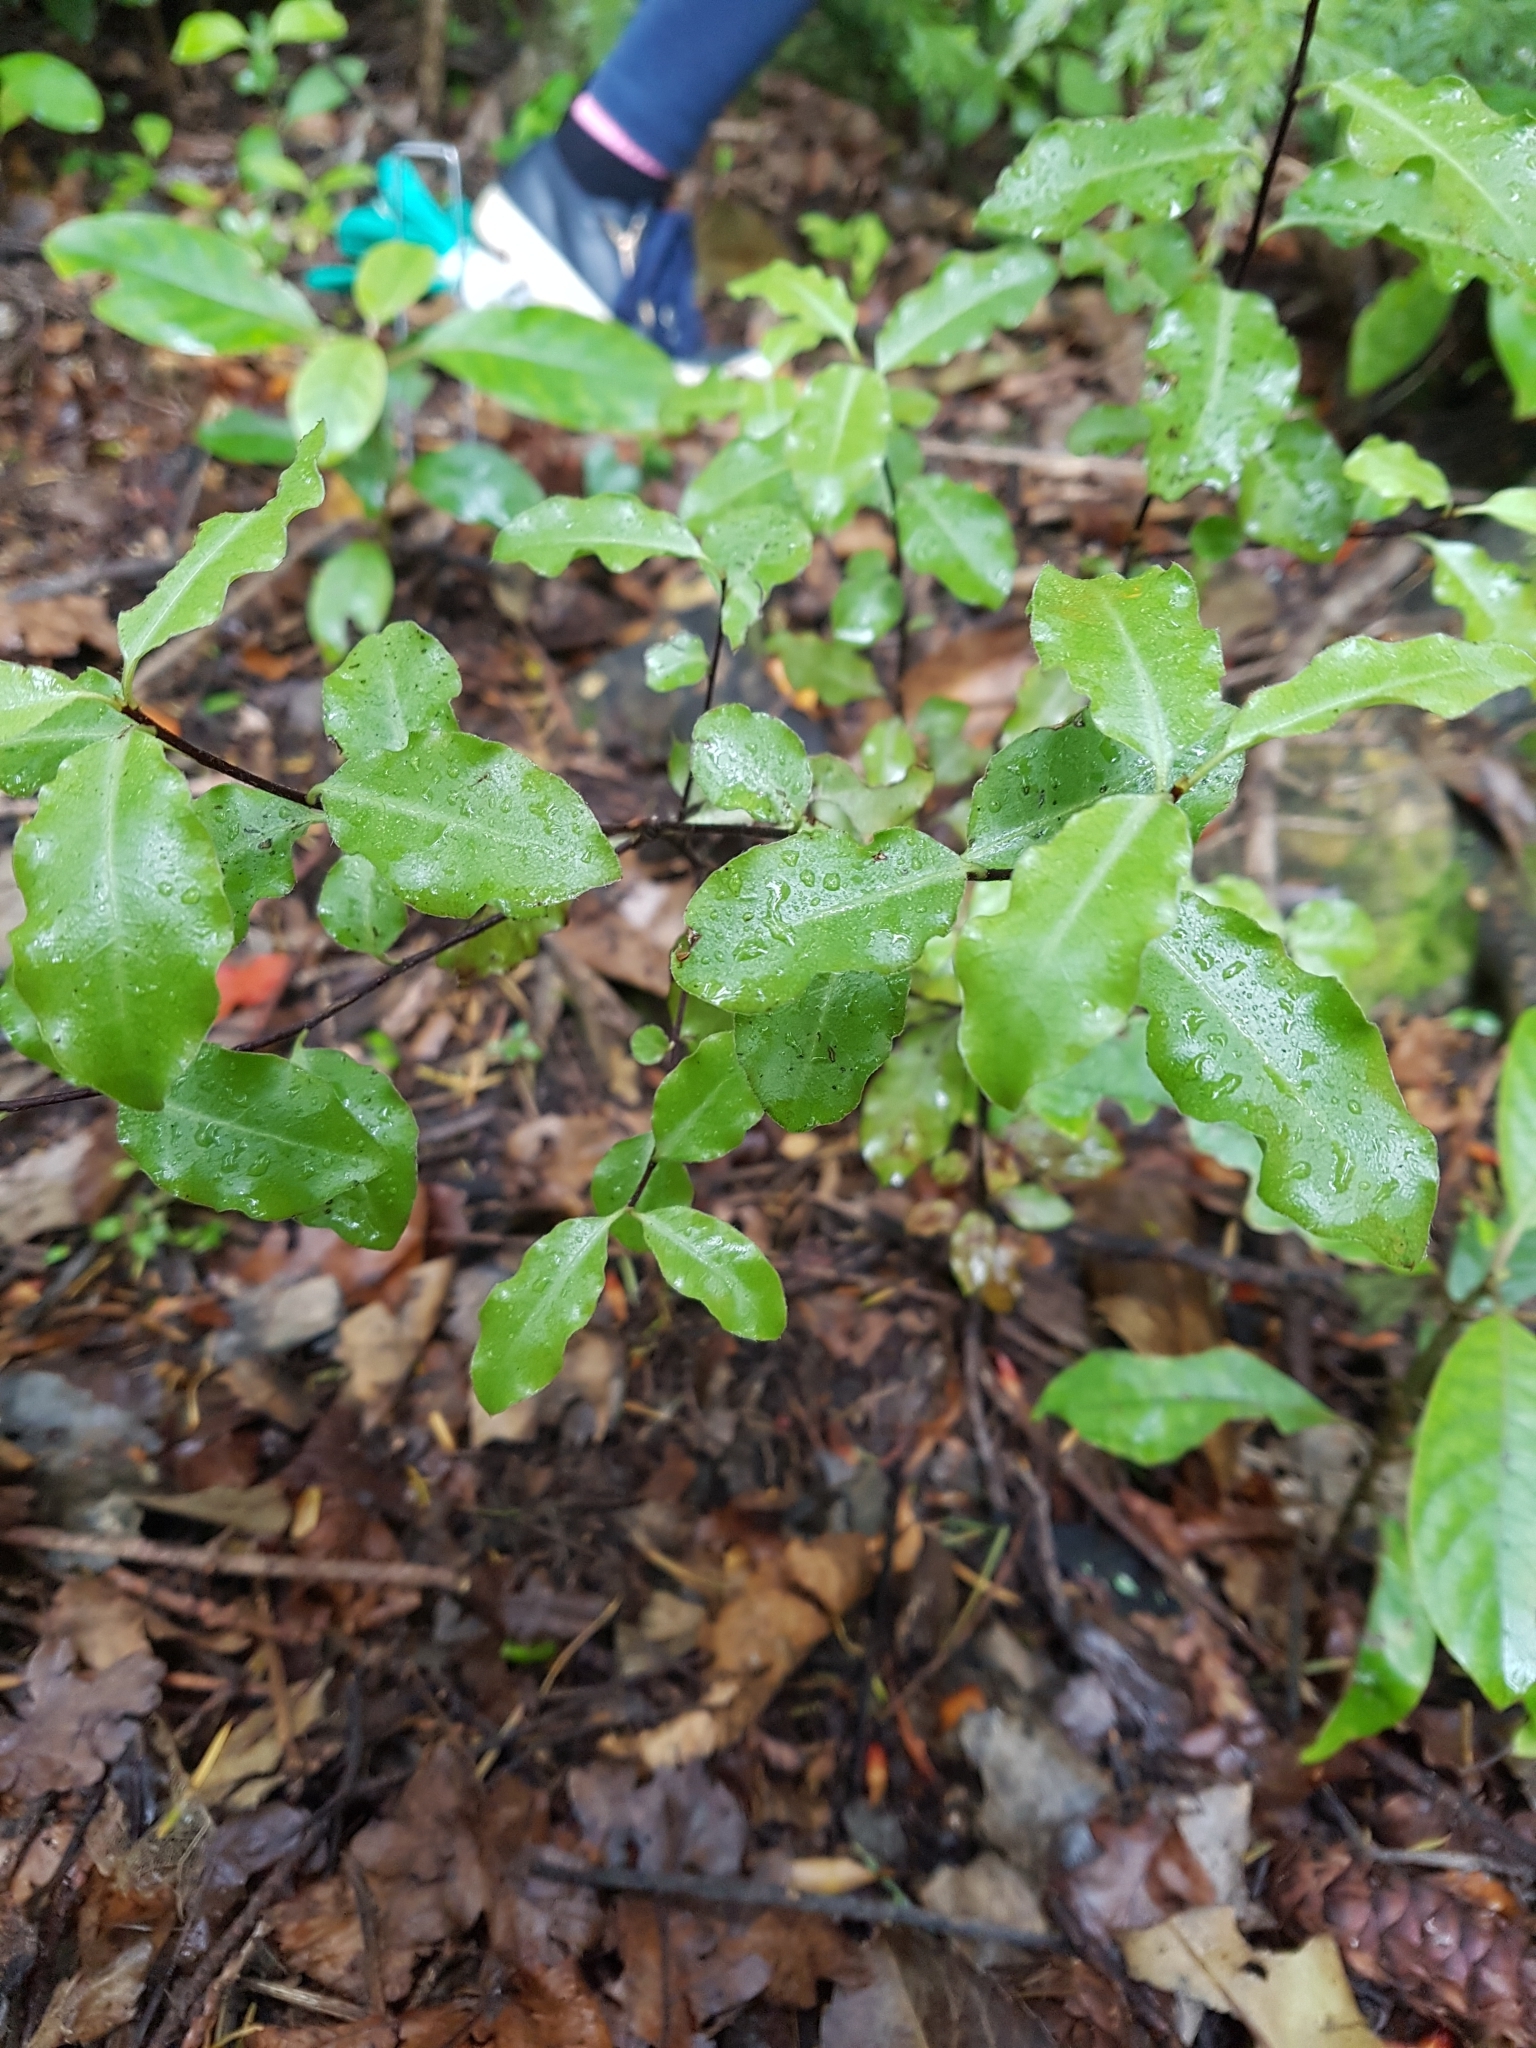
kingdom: Plantae
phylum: Tracheophyta
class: Magnoliopsida
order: Apiales
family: Pittosporaceae
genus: Pittosporum
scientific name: Pittosporum tenuifolium
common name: Kohuhu
